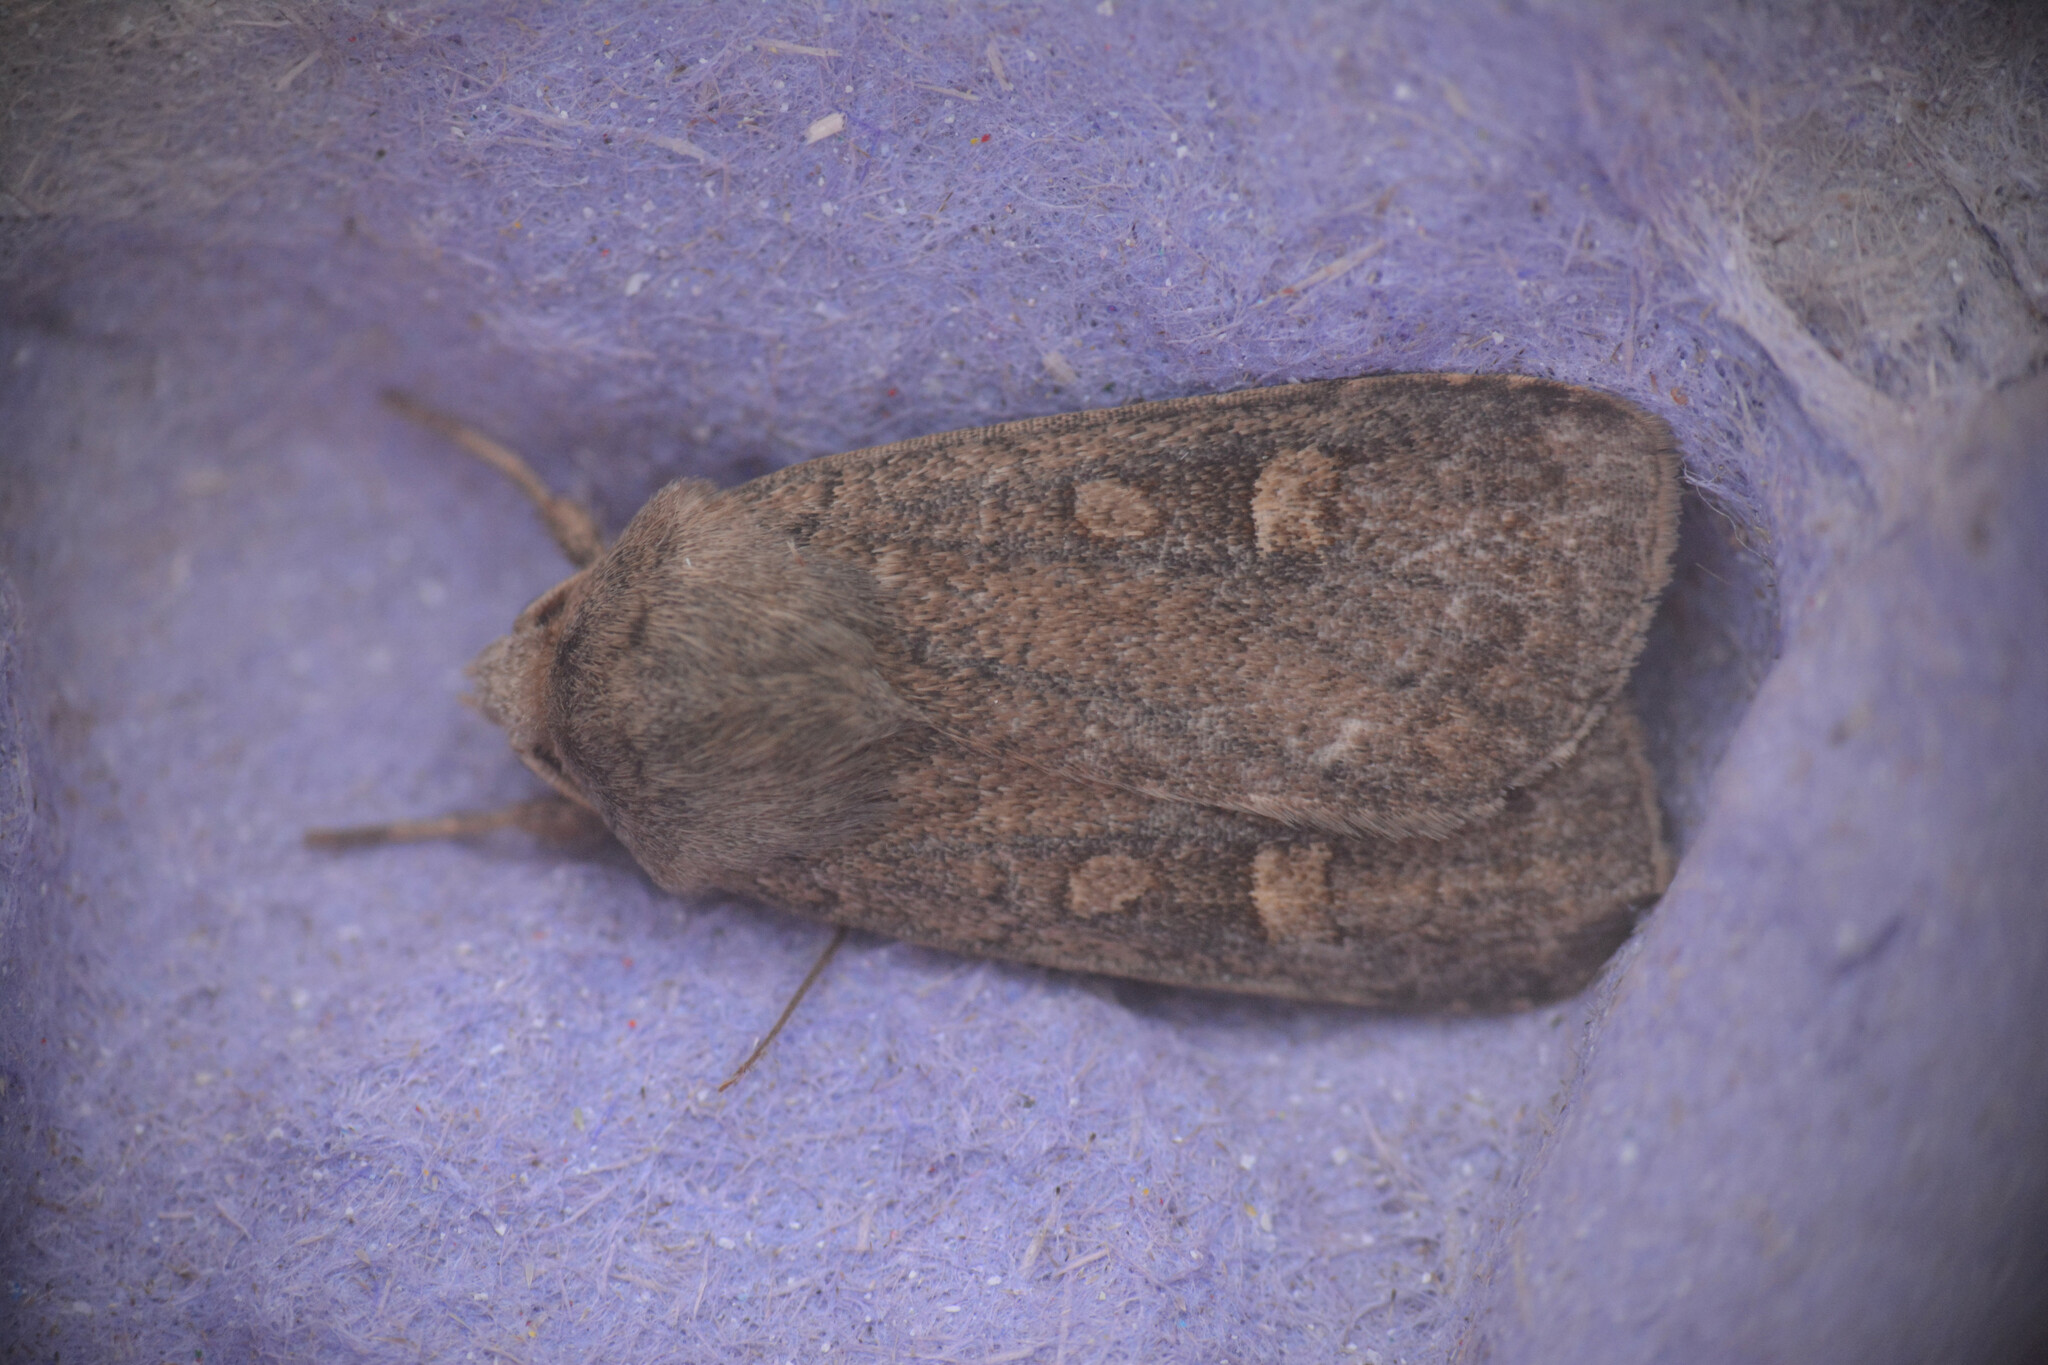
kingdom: Animalia
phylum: Arthropoda
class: Insecta
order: Lepidoptera
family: Noctuidae
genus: Xestia
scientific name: Xestia xanthographa
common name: Square-spot rustic
